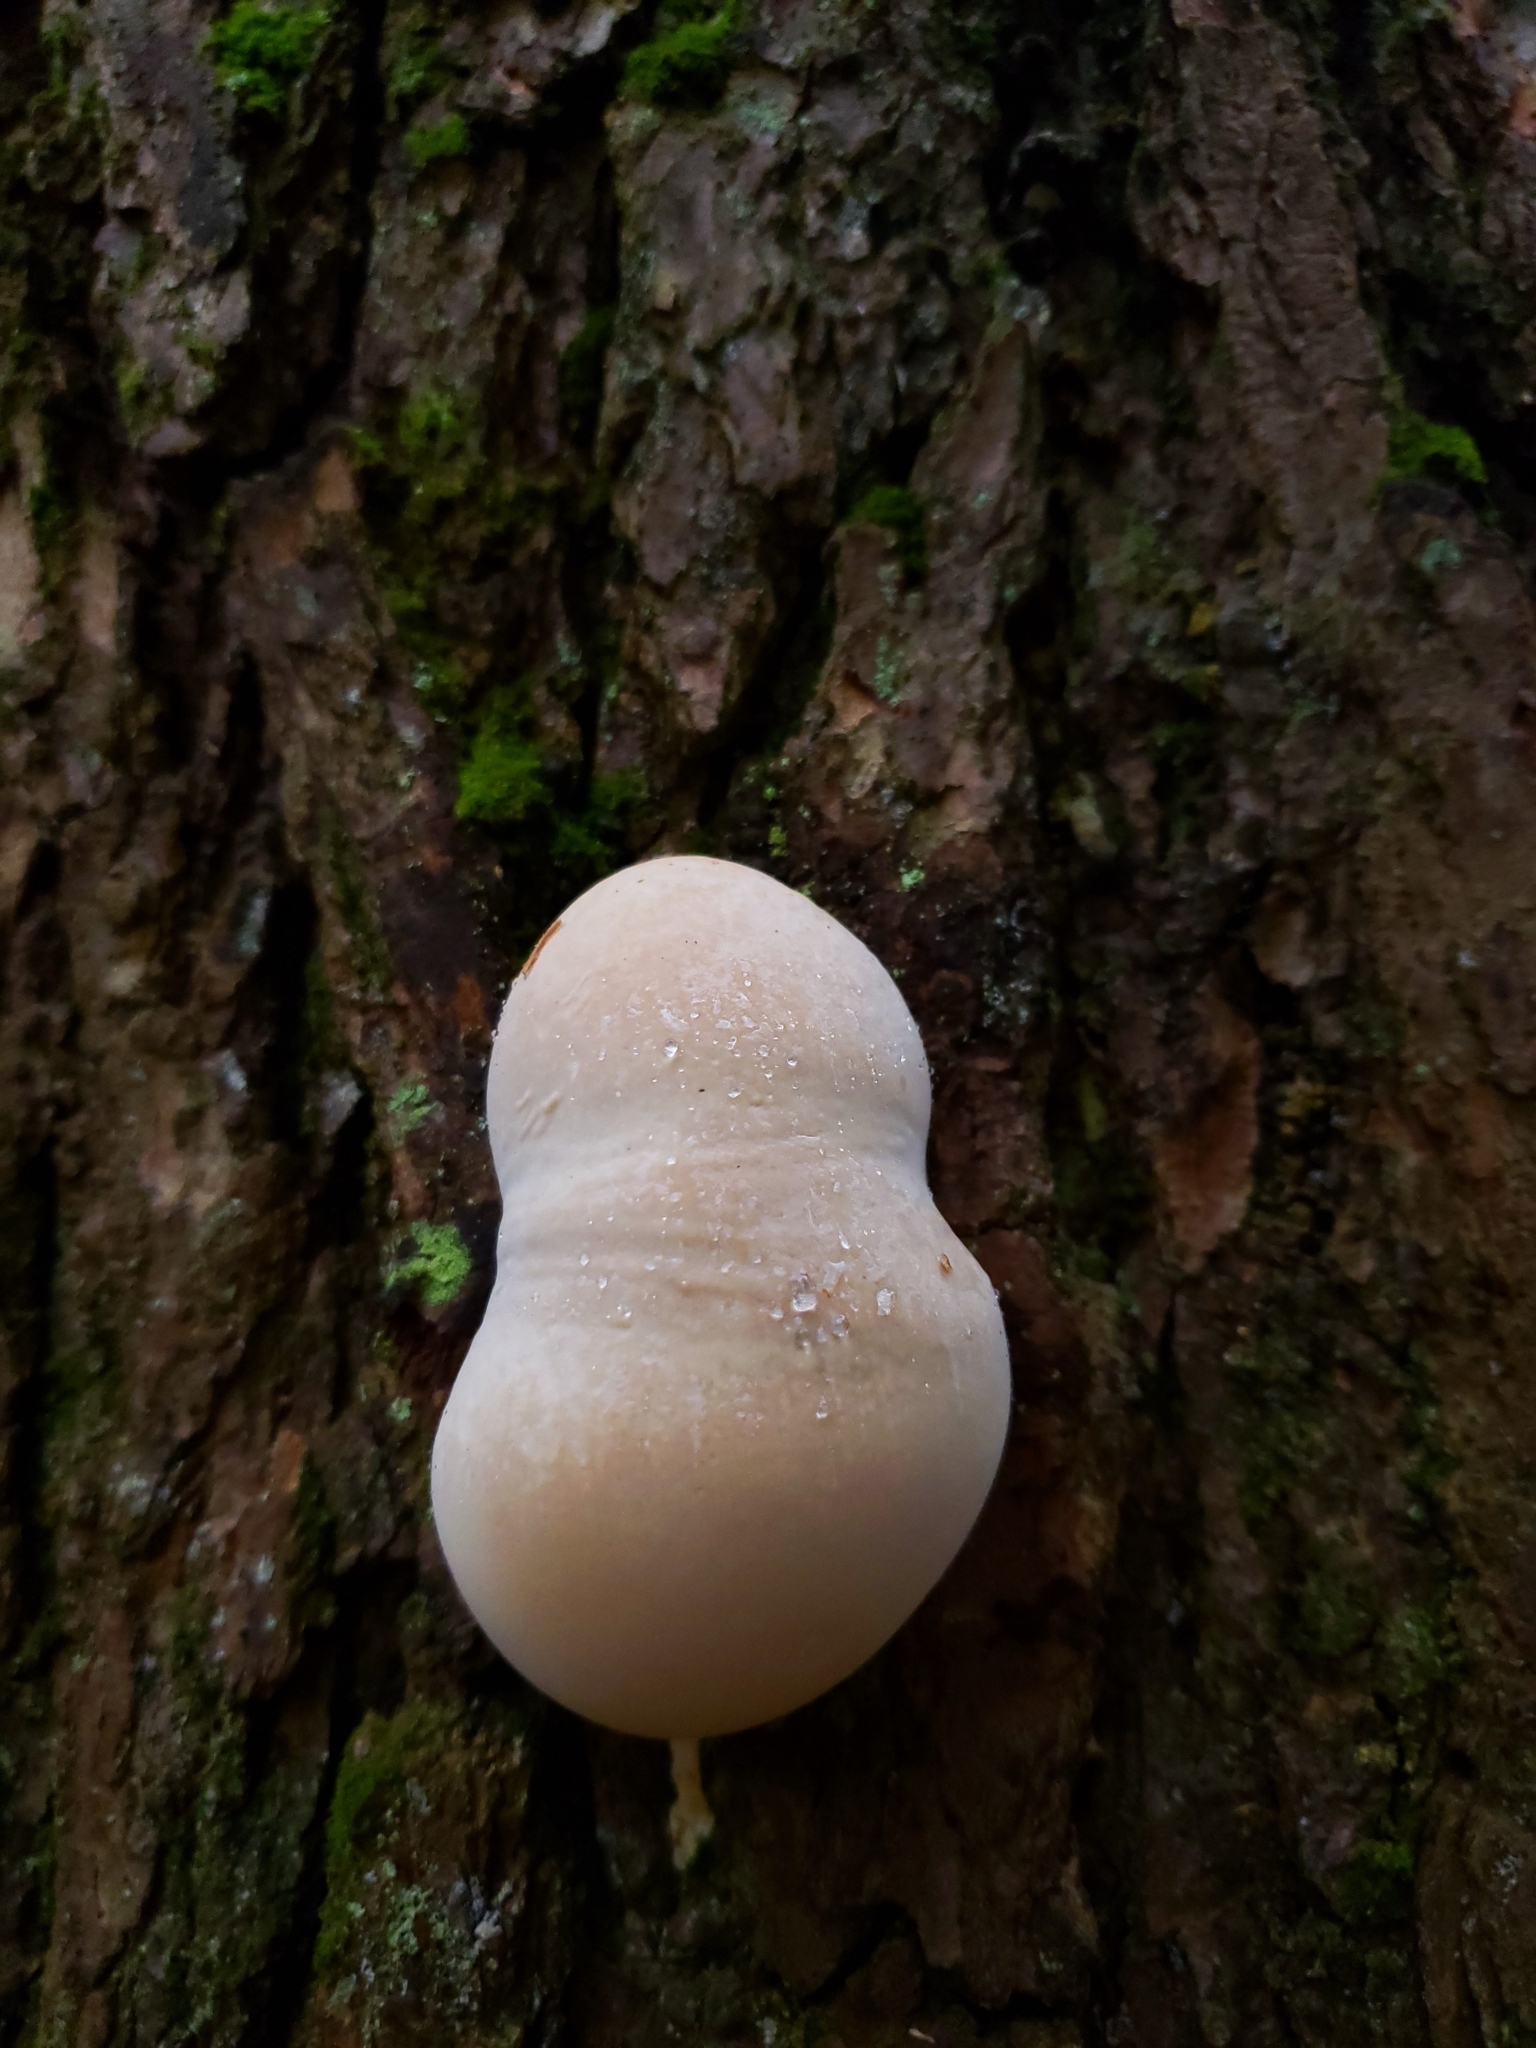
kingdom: Fungi
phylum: Basidiomycota
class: Agaricomycetes
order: Polyporales
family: Polyporaceae
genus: Ganoderma
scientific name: Ganoderma tsugae
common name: Hemlock varnish shelf
